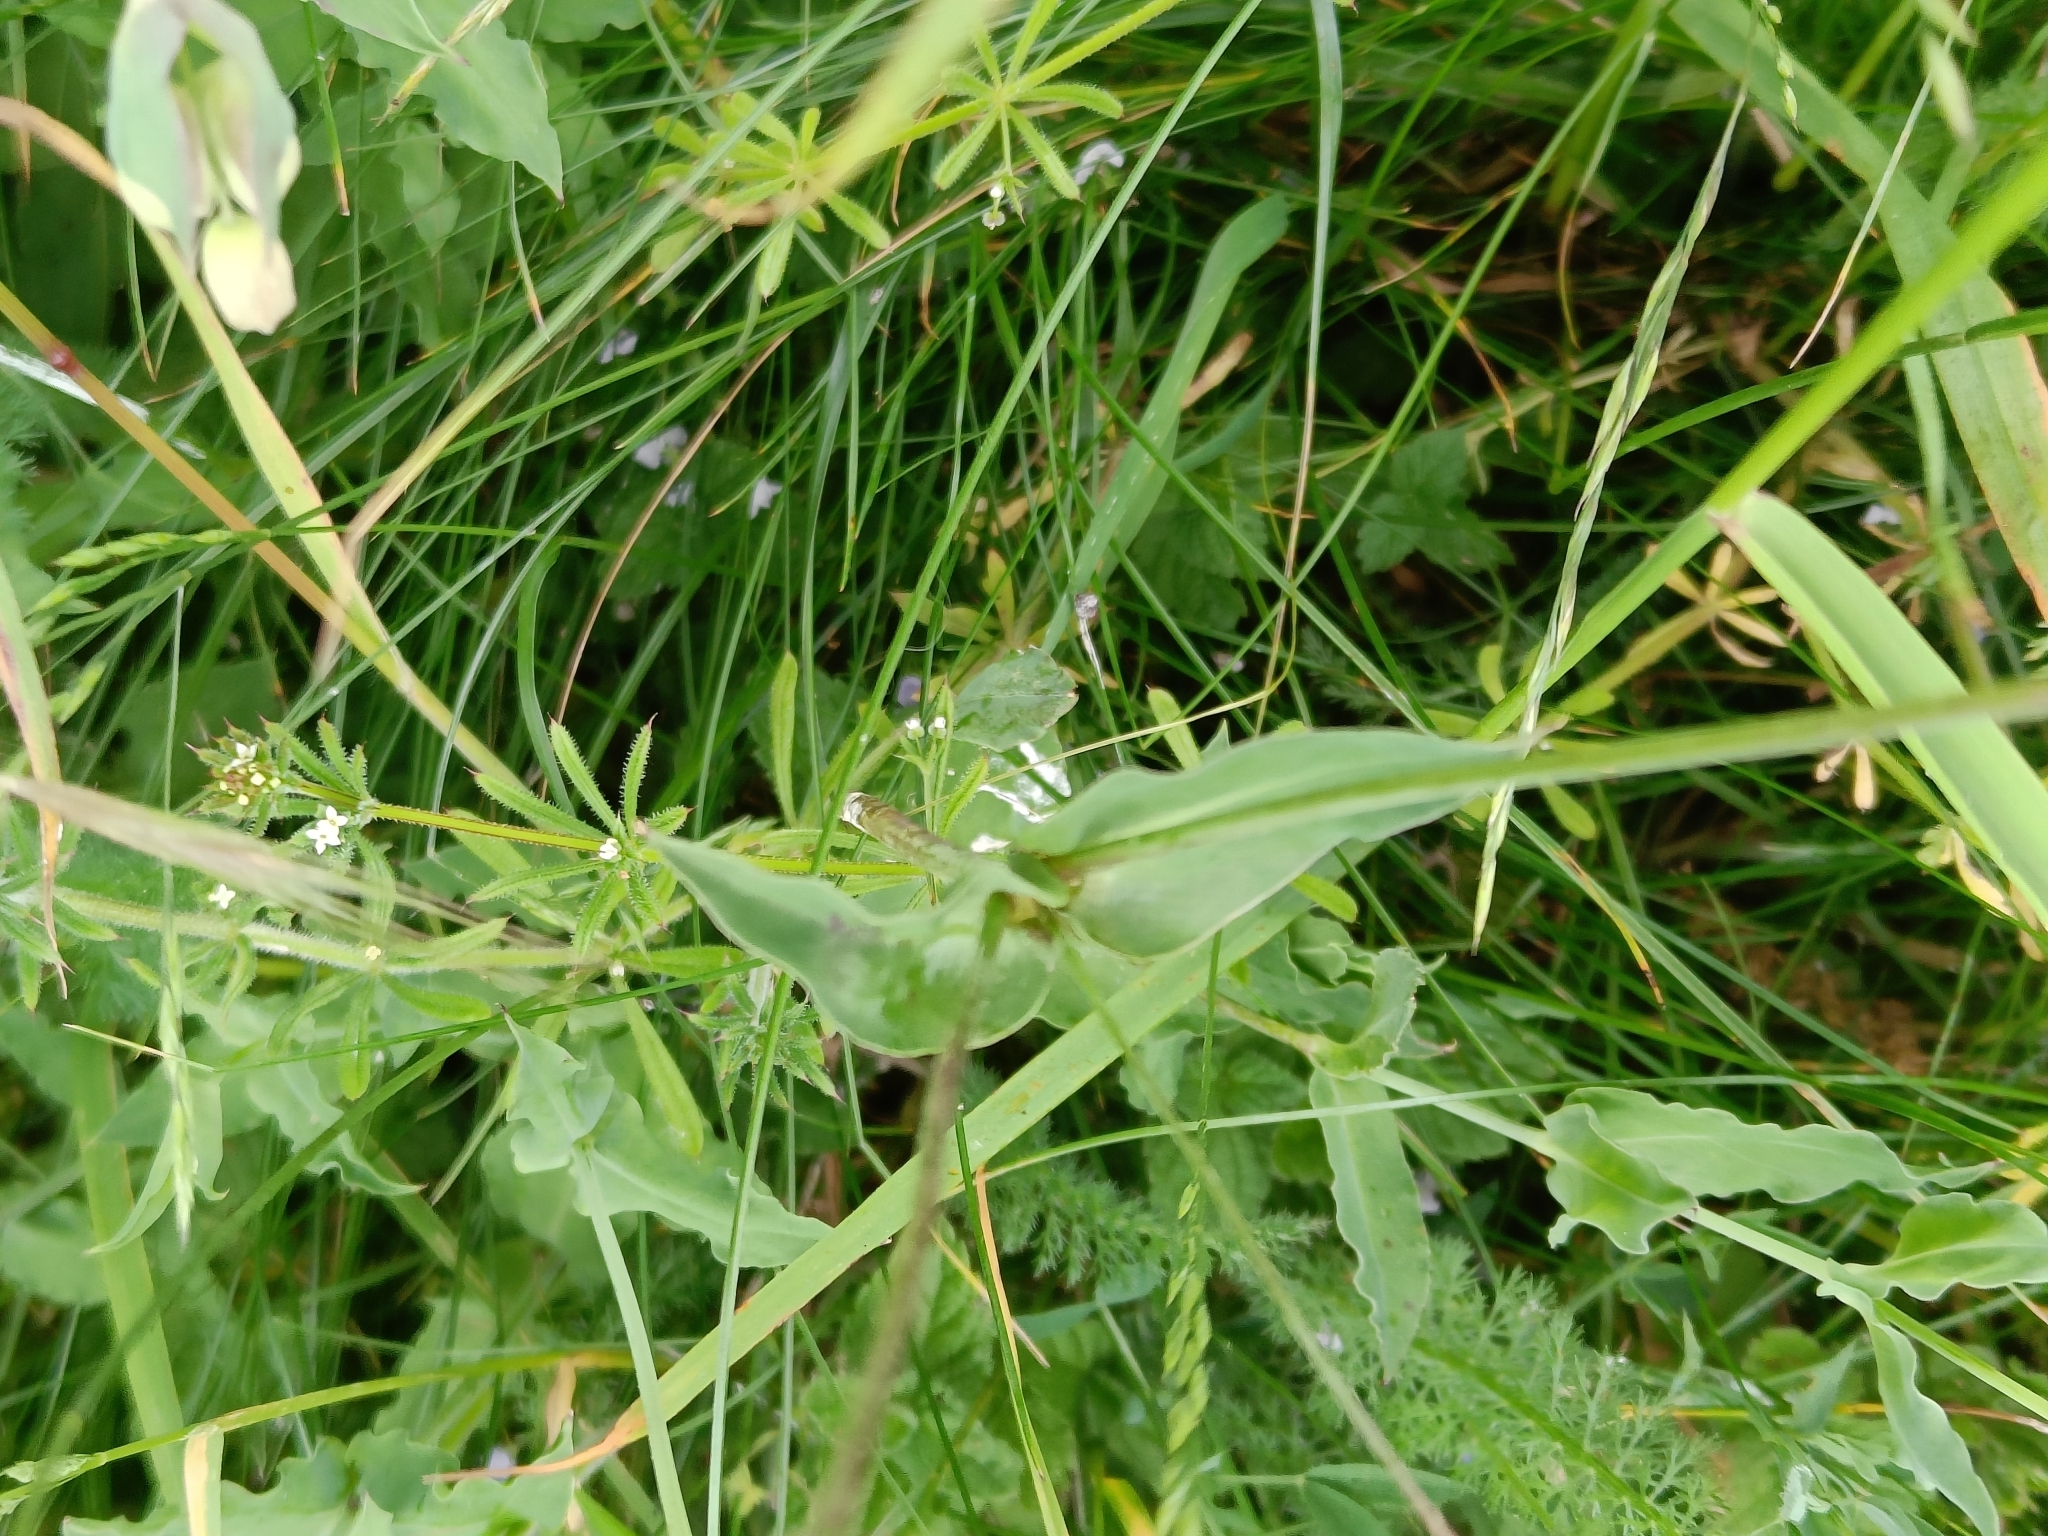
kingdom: Plantae
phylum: Tracheophyta
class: Magnoliopsida
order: Caryophyllales
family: Caryophyllaceae
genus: Silene
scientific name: Silene vulgaris
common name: Bladder campion
